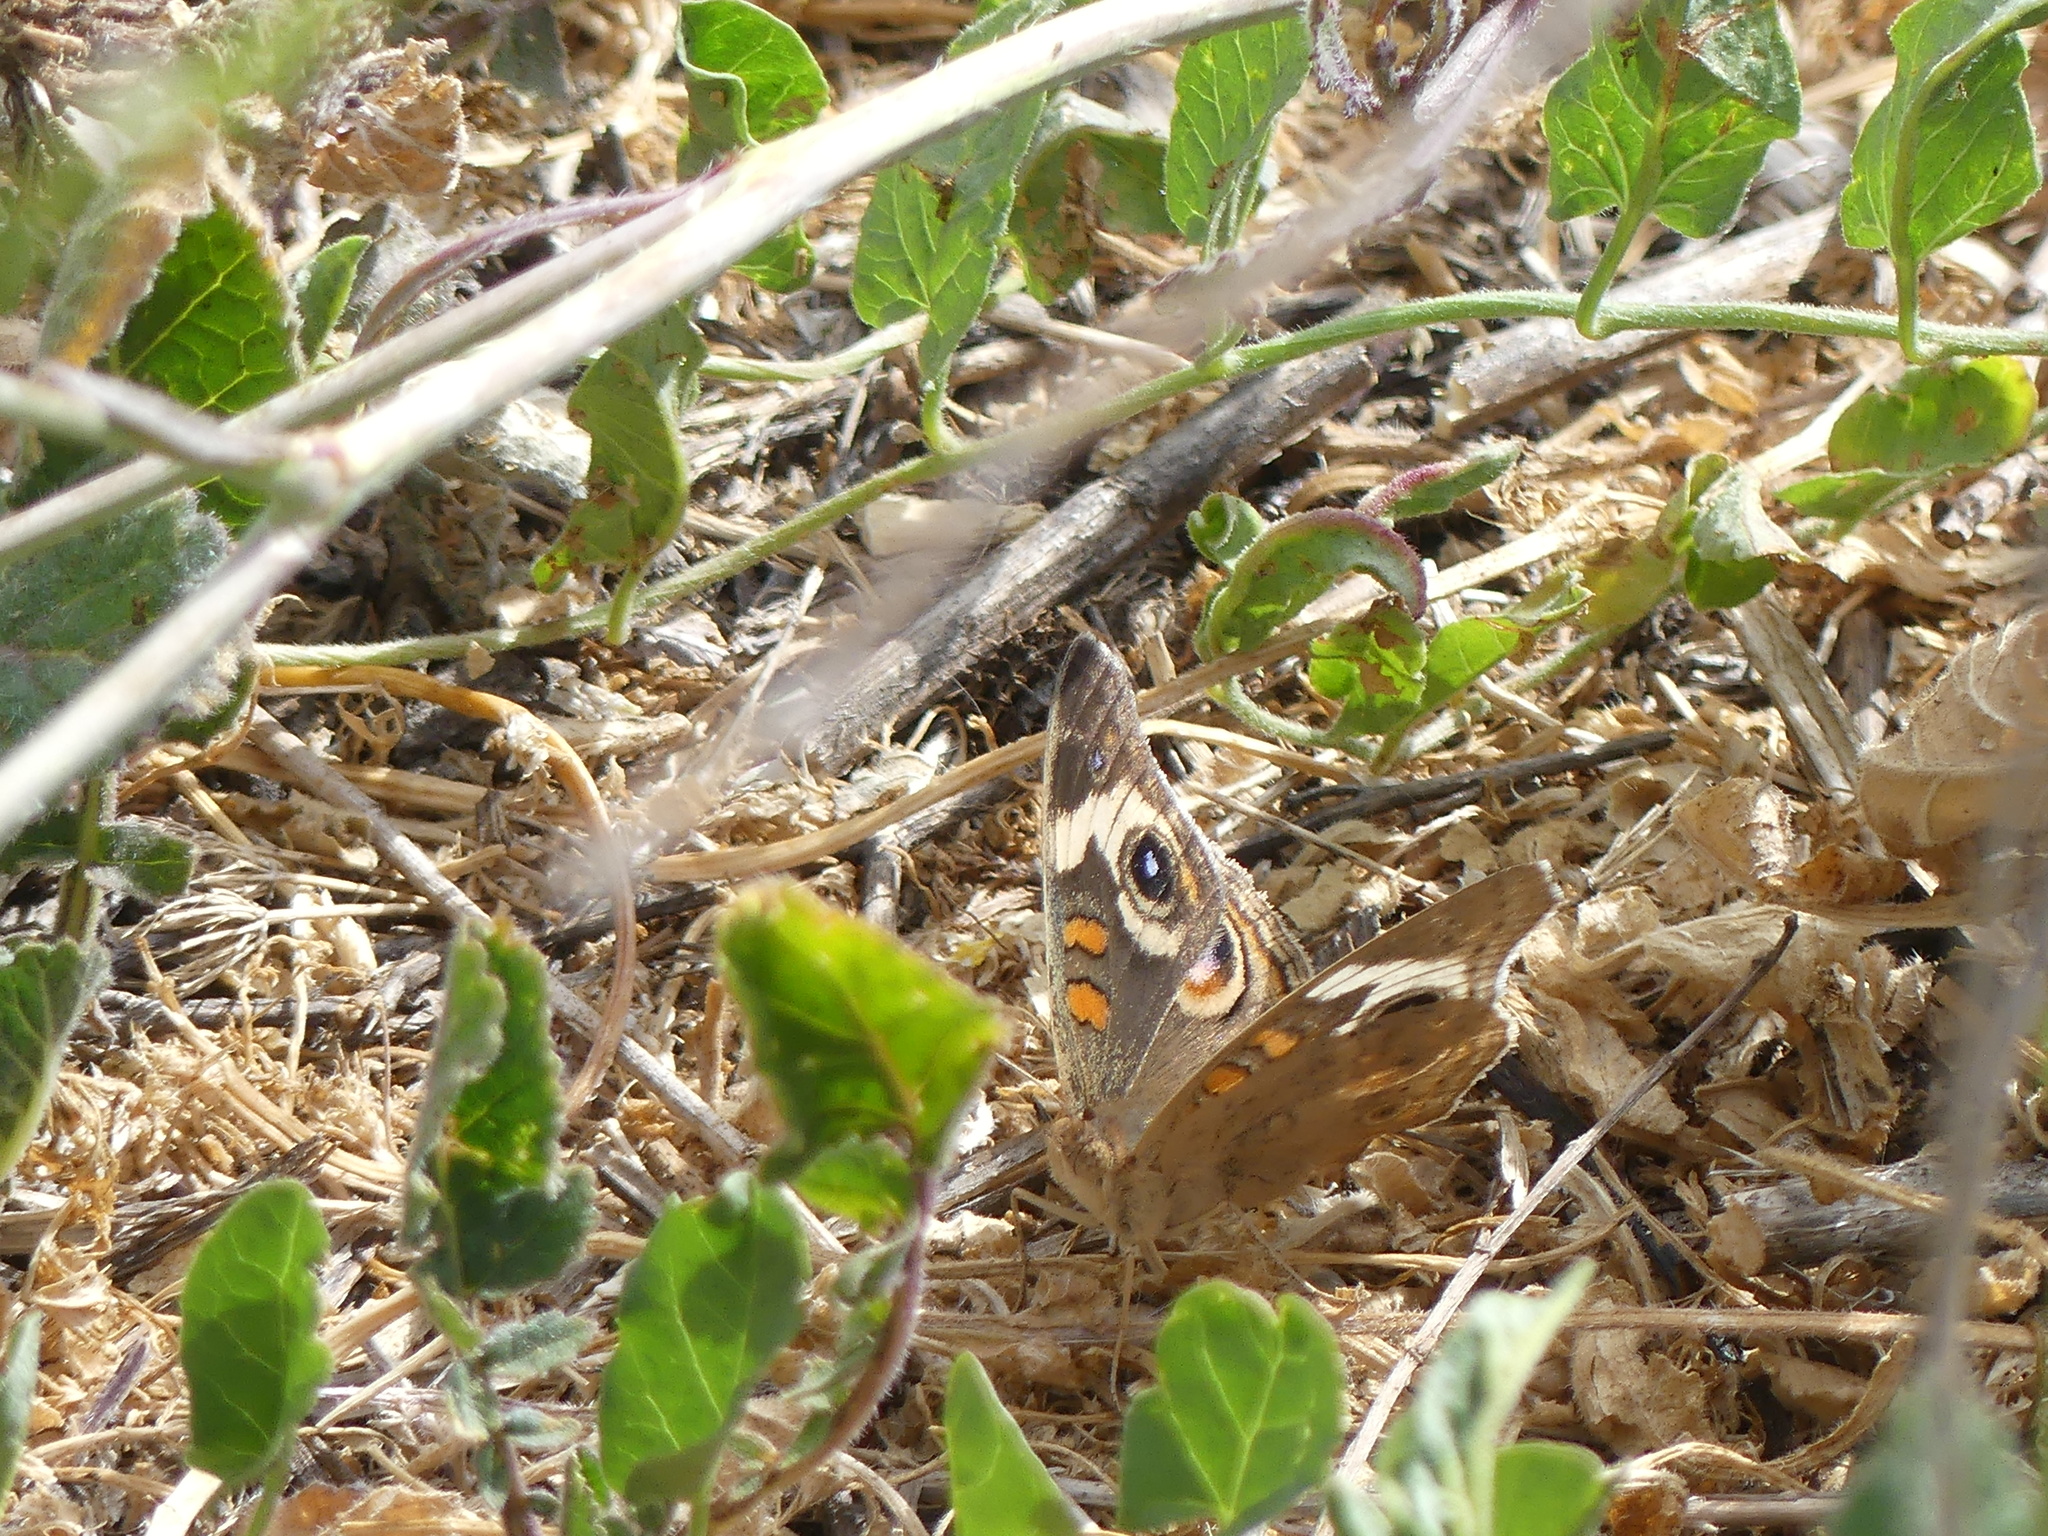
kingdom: Animalia
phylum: Arthropoda
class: Insecta
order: Lepidoptera
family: Nymphalidae
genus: Junonia
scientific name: Junonia grisea
